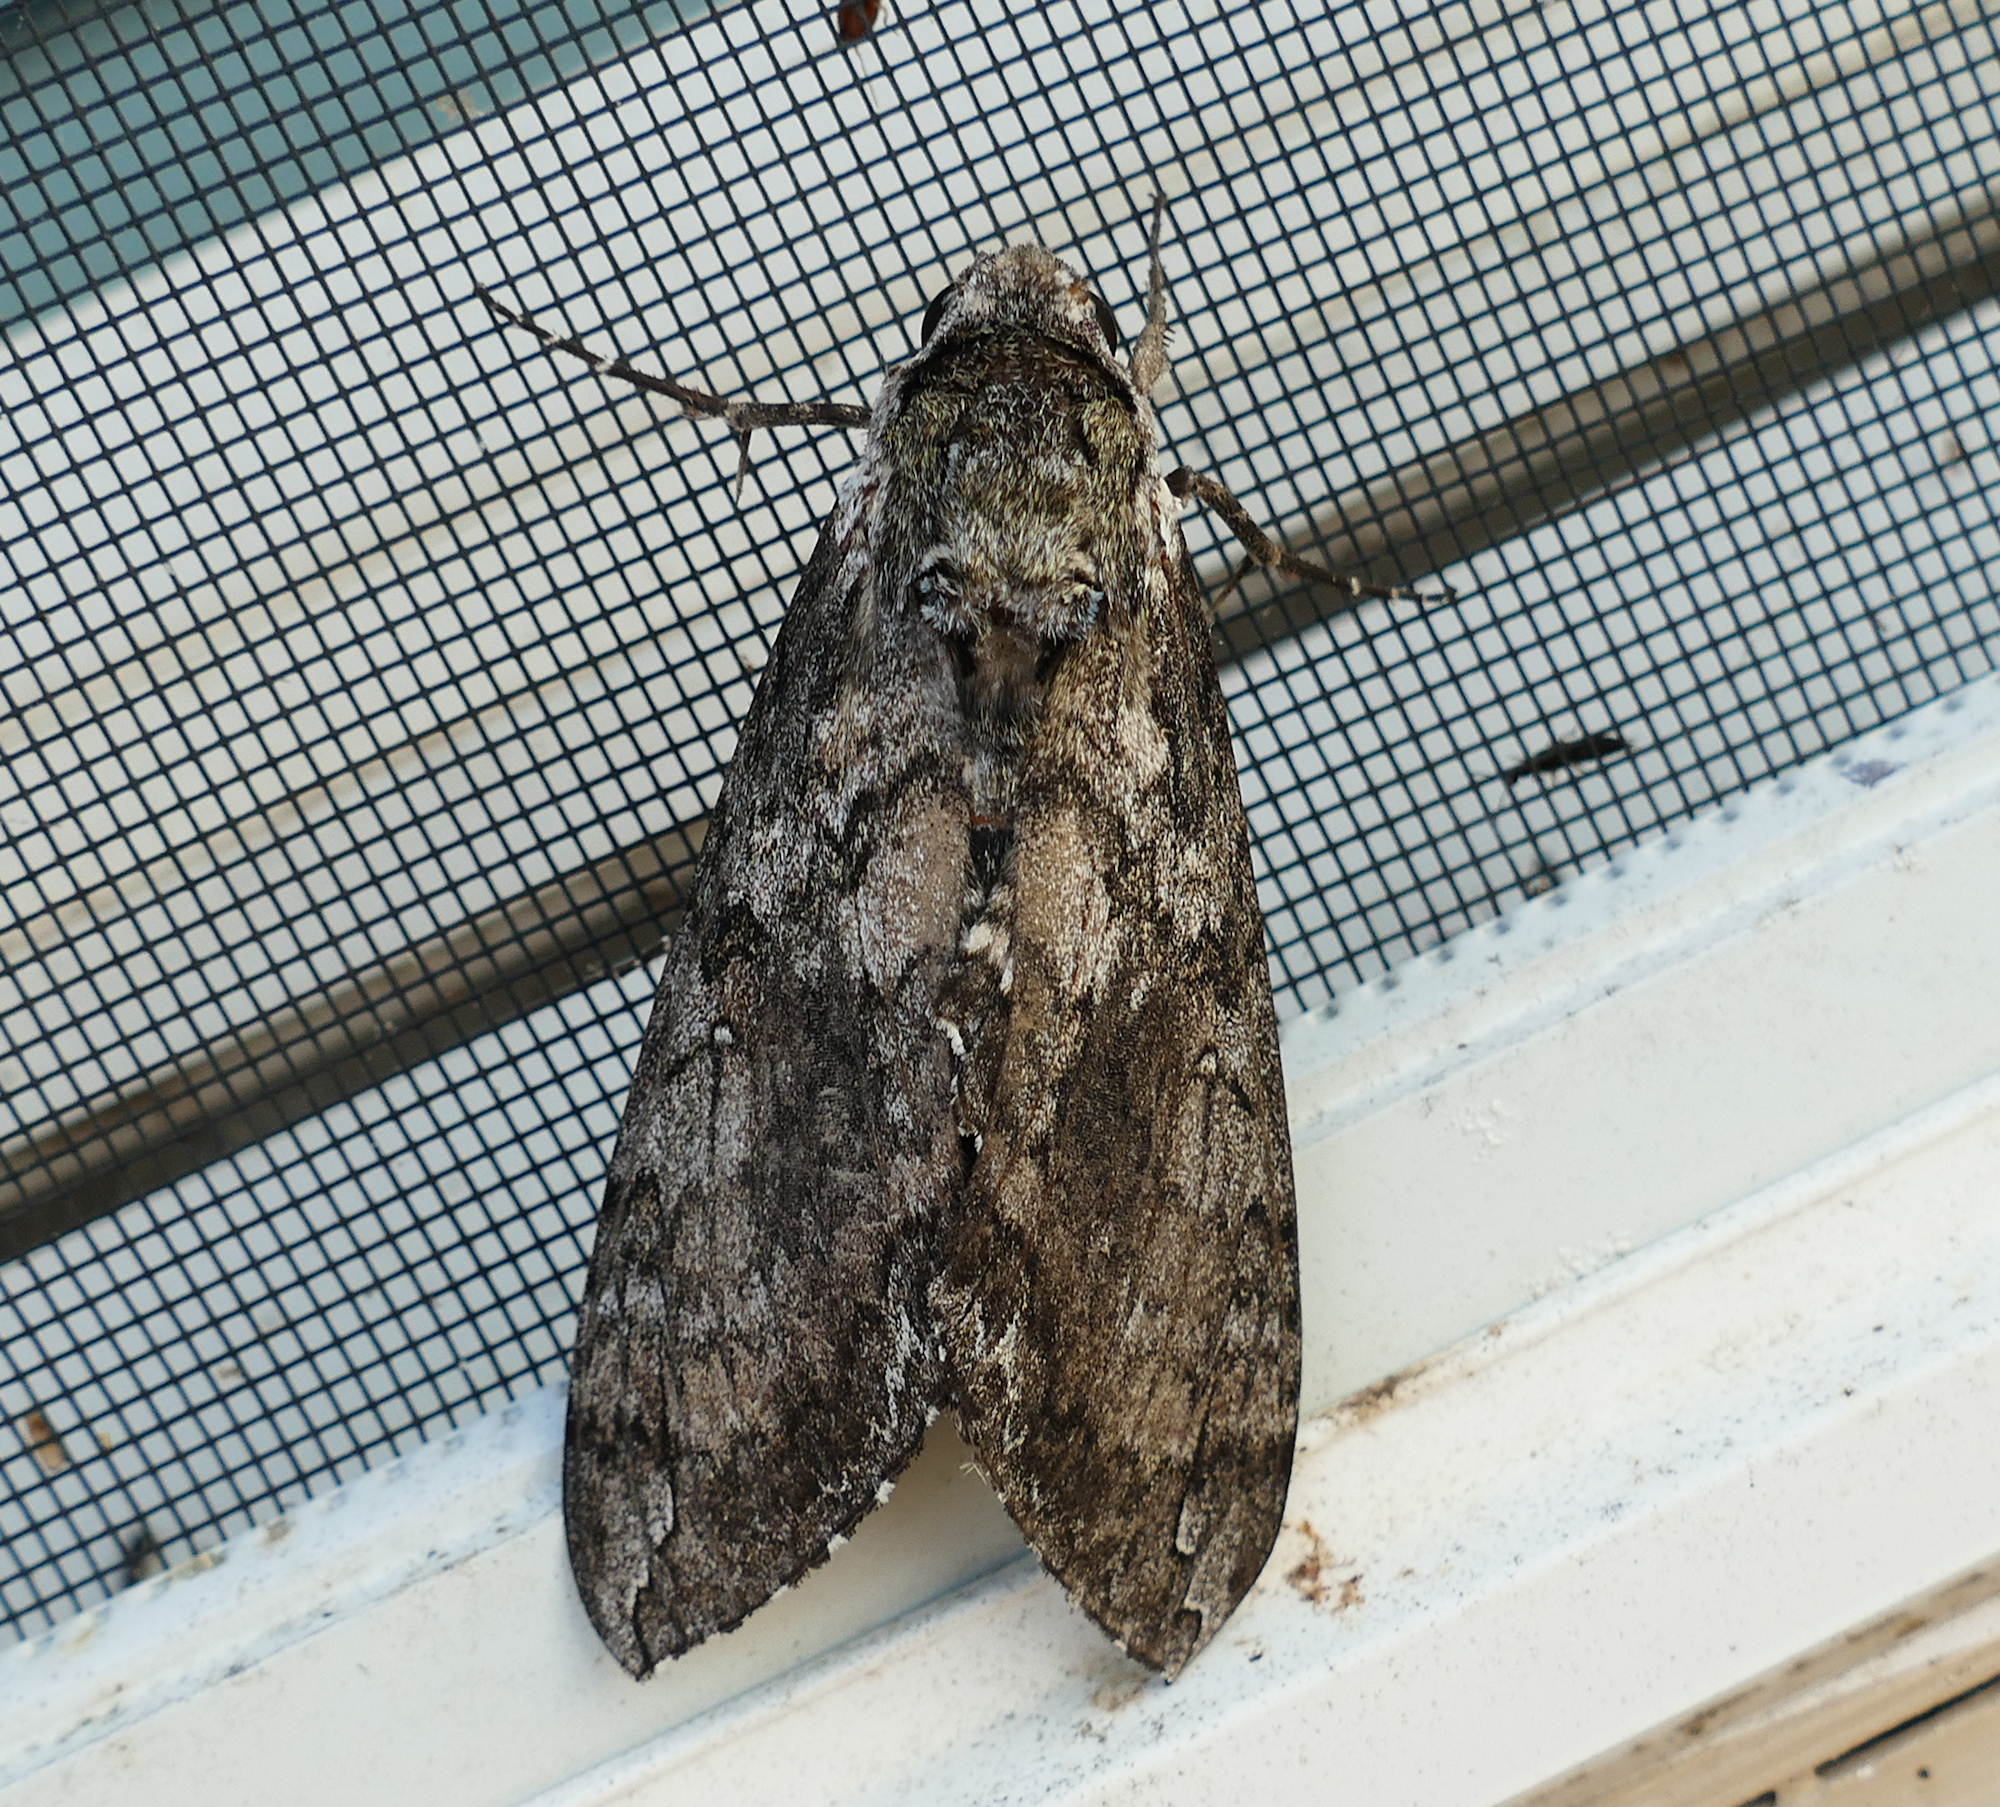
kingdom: Animalia
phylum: Arthropoda
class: Insecta
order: Lepidoptera
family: Sphingidae
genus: Manduca
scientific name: Manduca sexta
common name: Carolina sphinx
